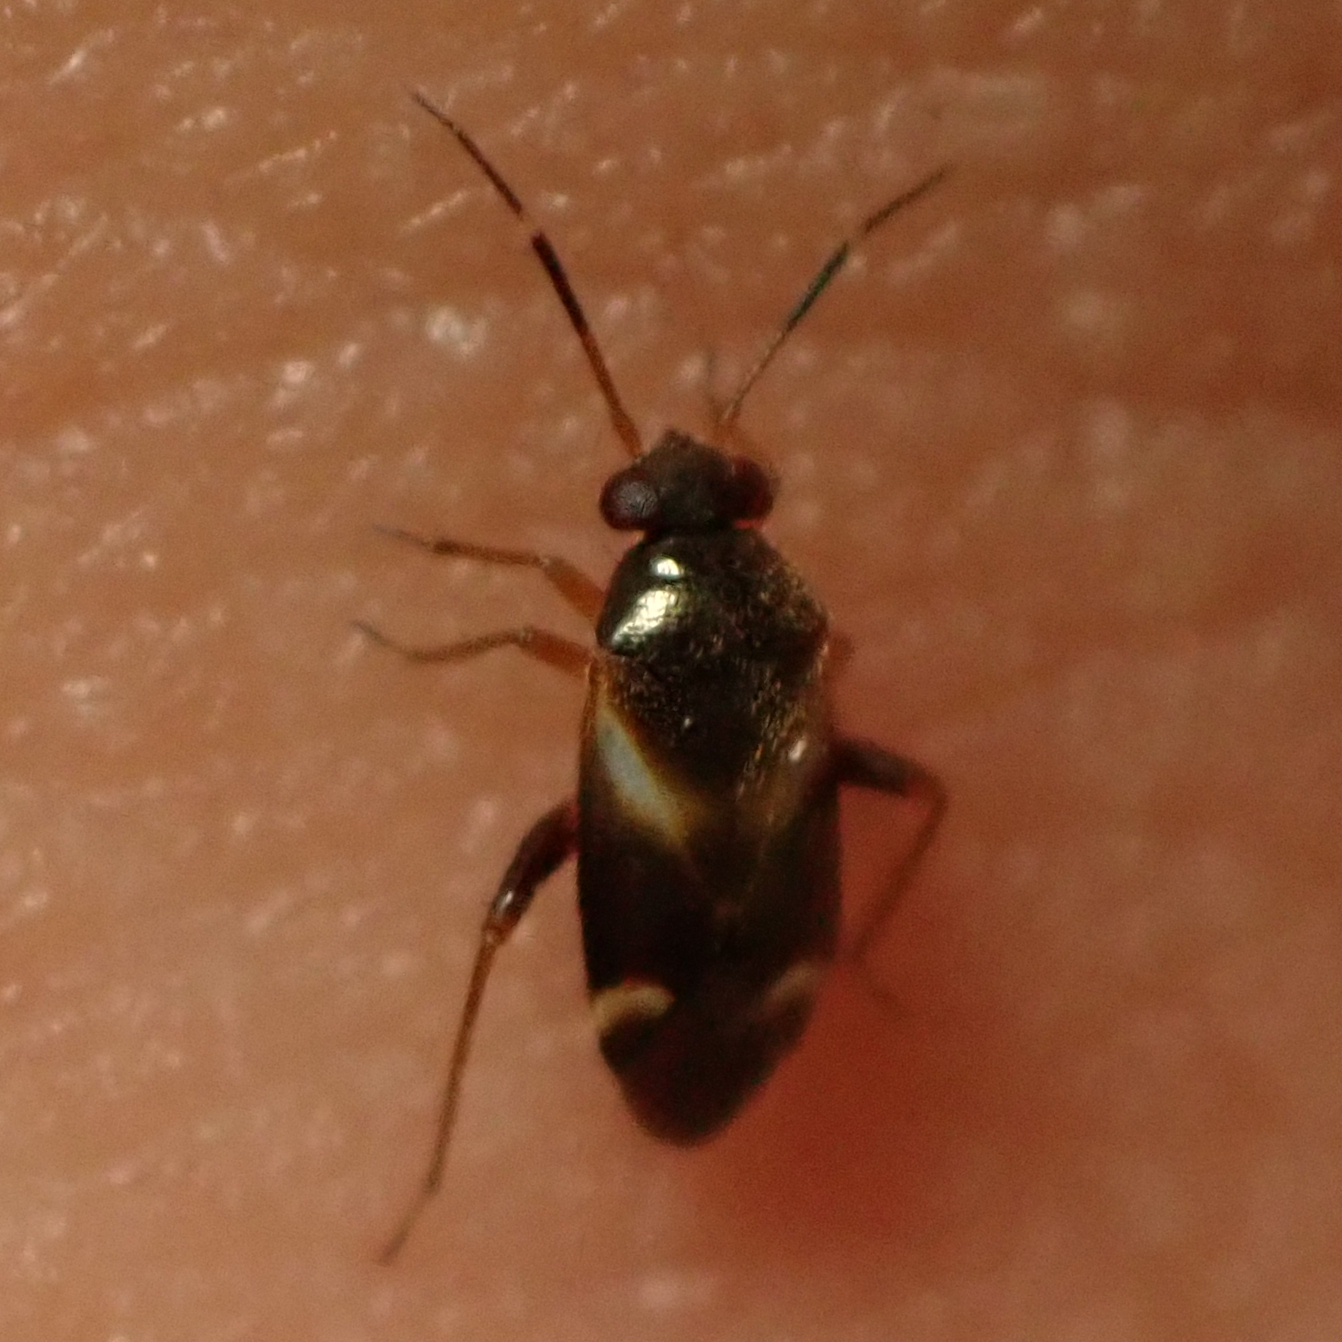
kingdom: Animalia
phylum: Arthropoda
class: Insecta
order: Hemiptera
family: Miridae
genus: Ausejanus
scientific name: Ausejanus albisignatus
